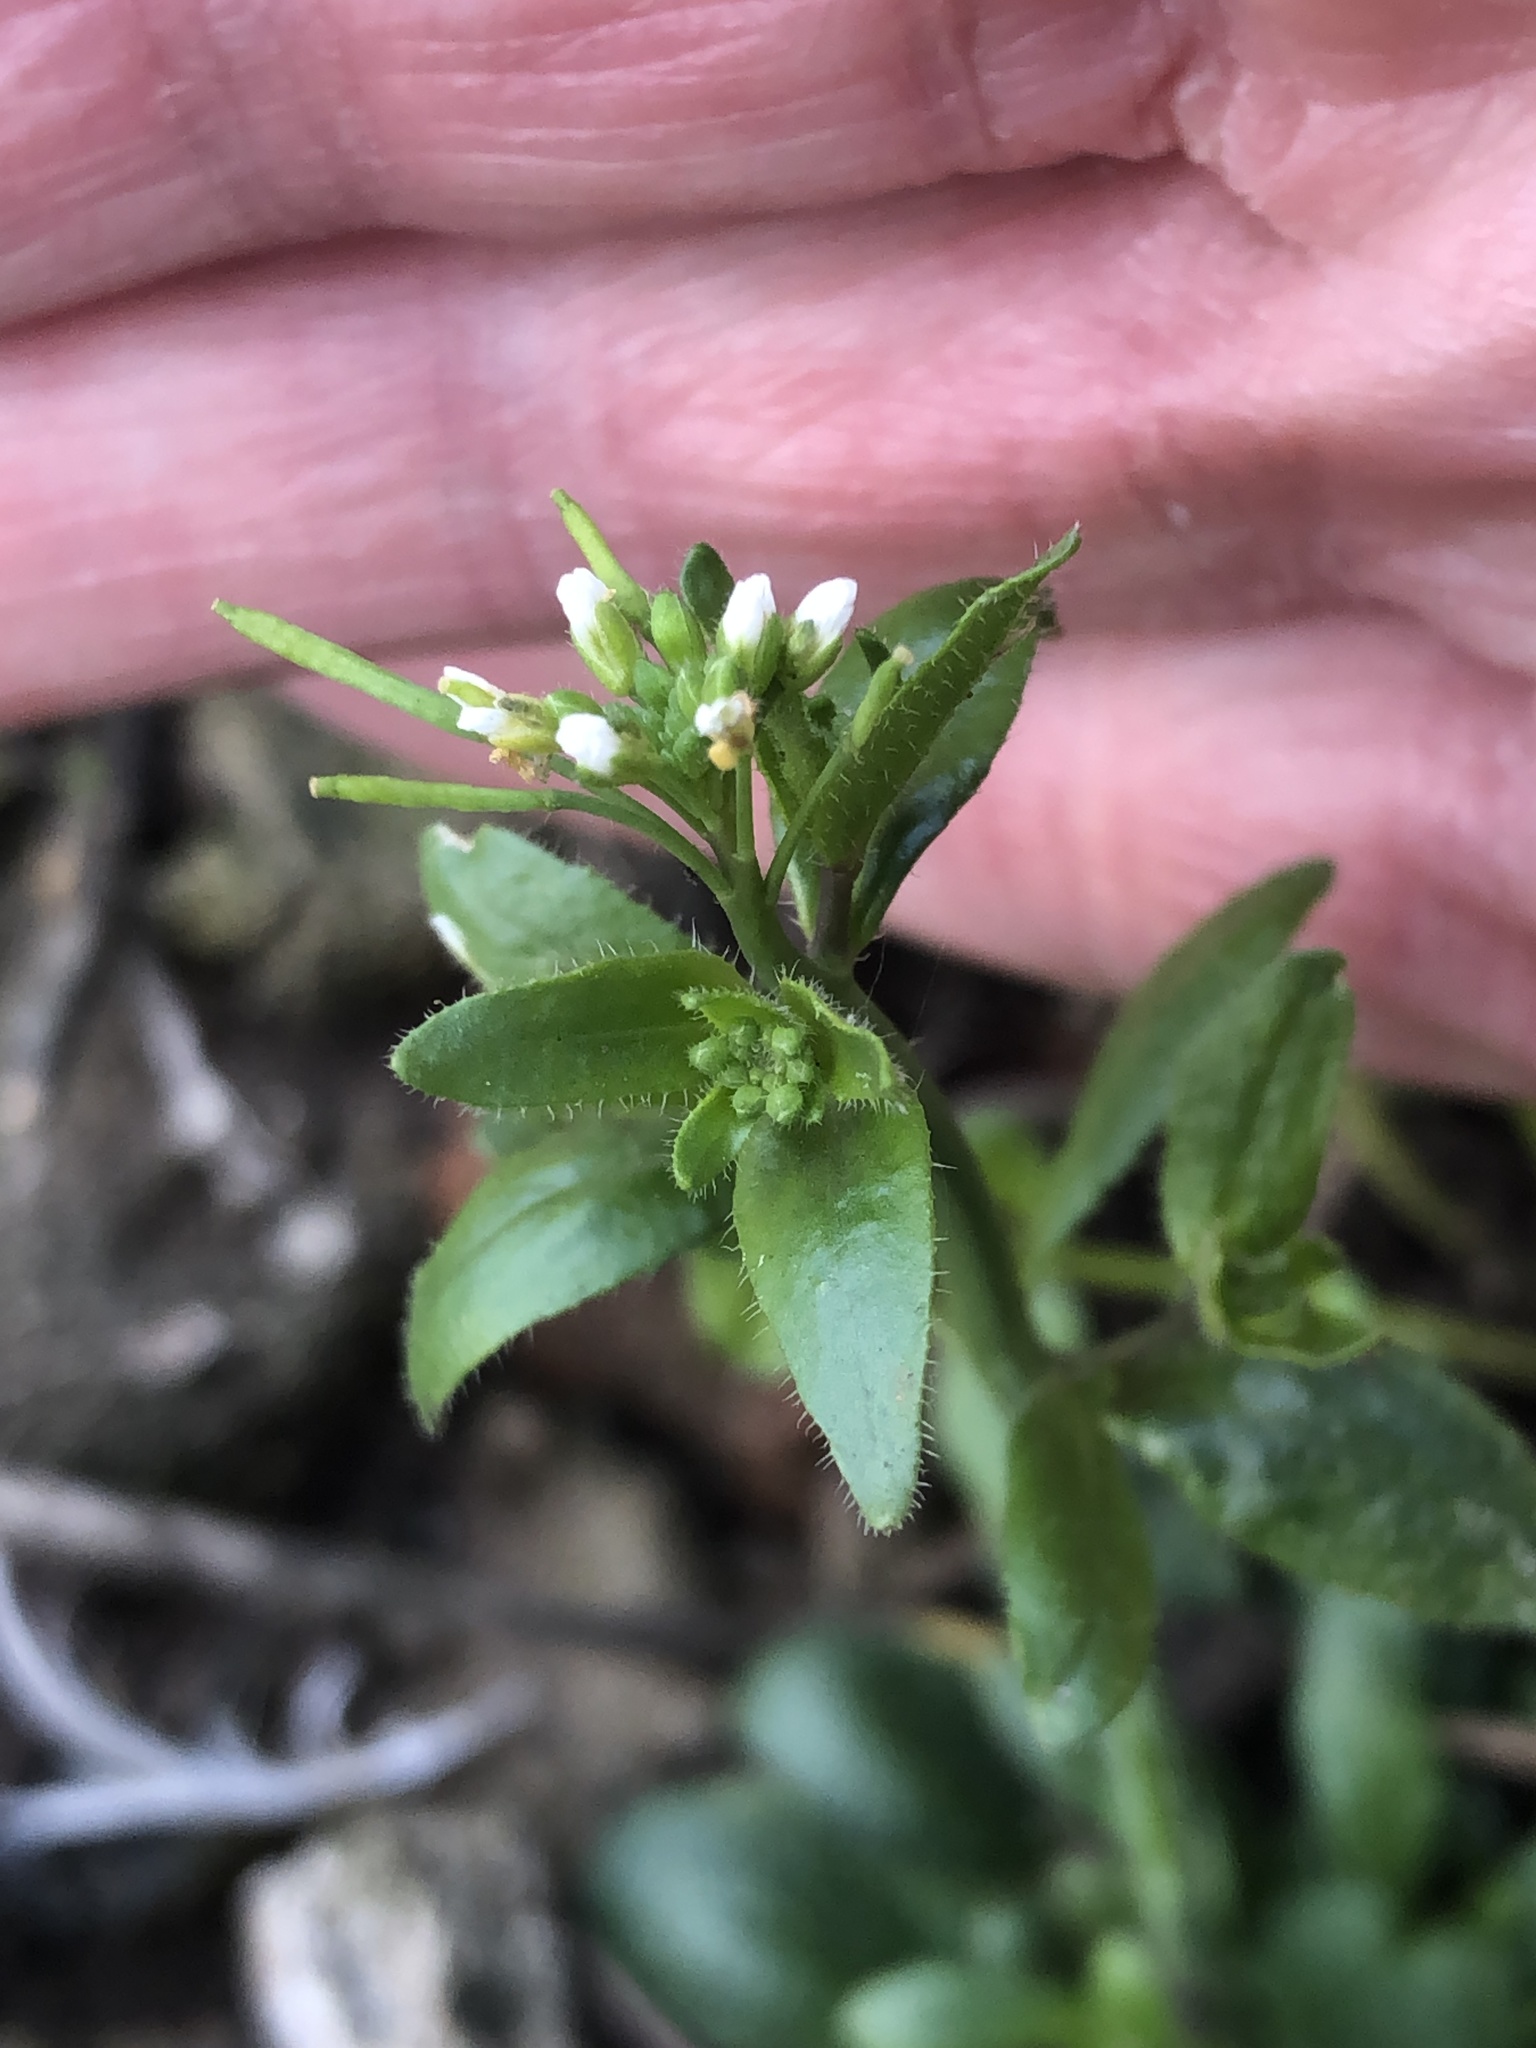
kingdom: Plantae
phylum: Tracheophyta
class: Magnoliopsida
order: Brassicales
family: Brassicaceae
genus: Arabidopsis
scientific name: Arabidopsis thaliana
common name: Thale cress
